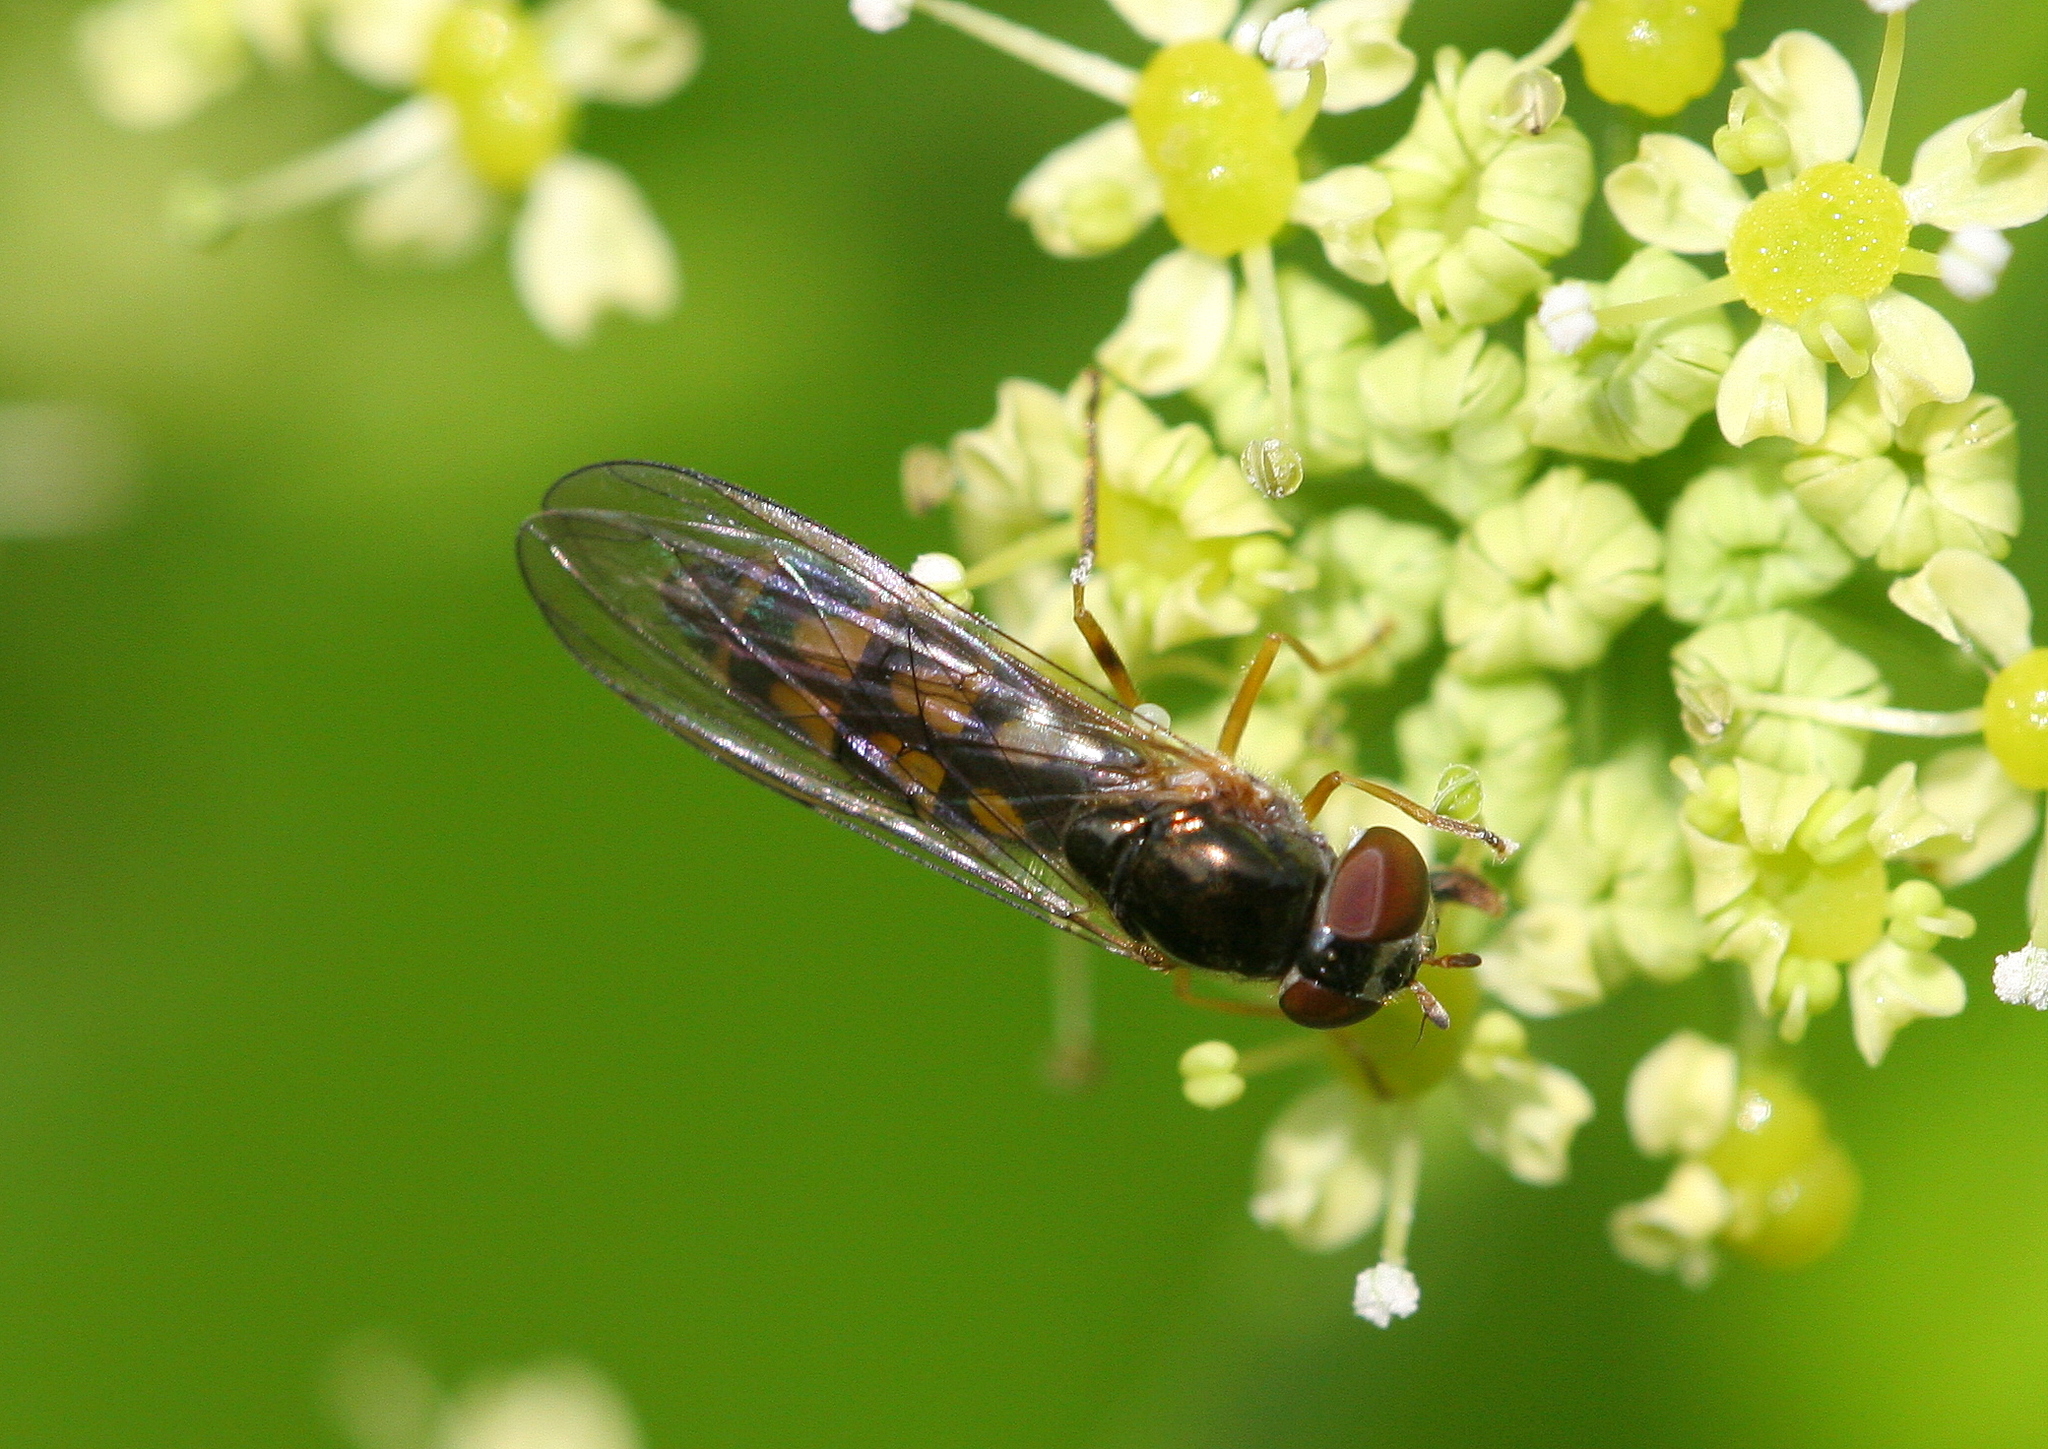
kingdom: Animalia
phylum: Arthropoda
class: Insecta
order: Diptera
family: Syrphidae
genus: Melanostoma
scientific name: Melanostoma scalare
